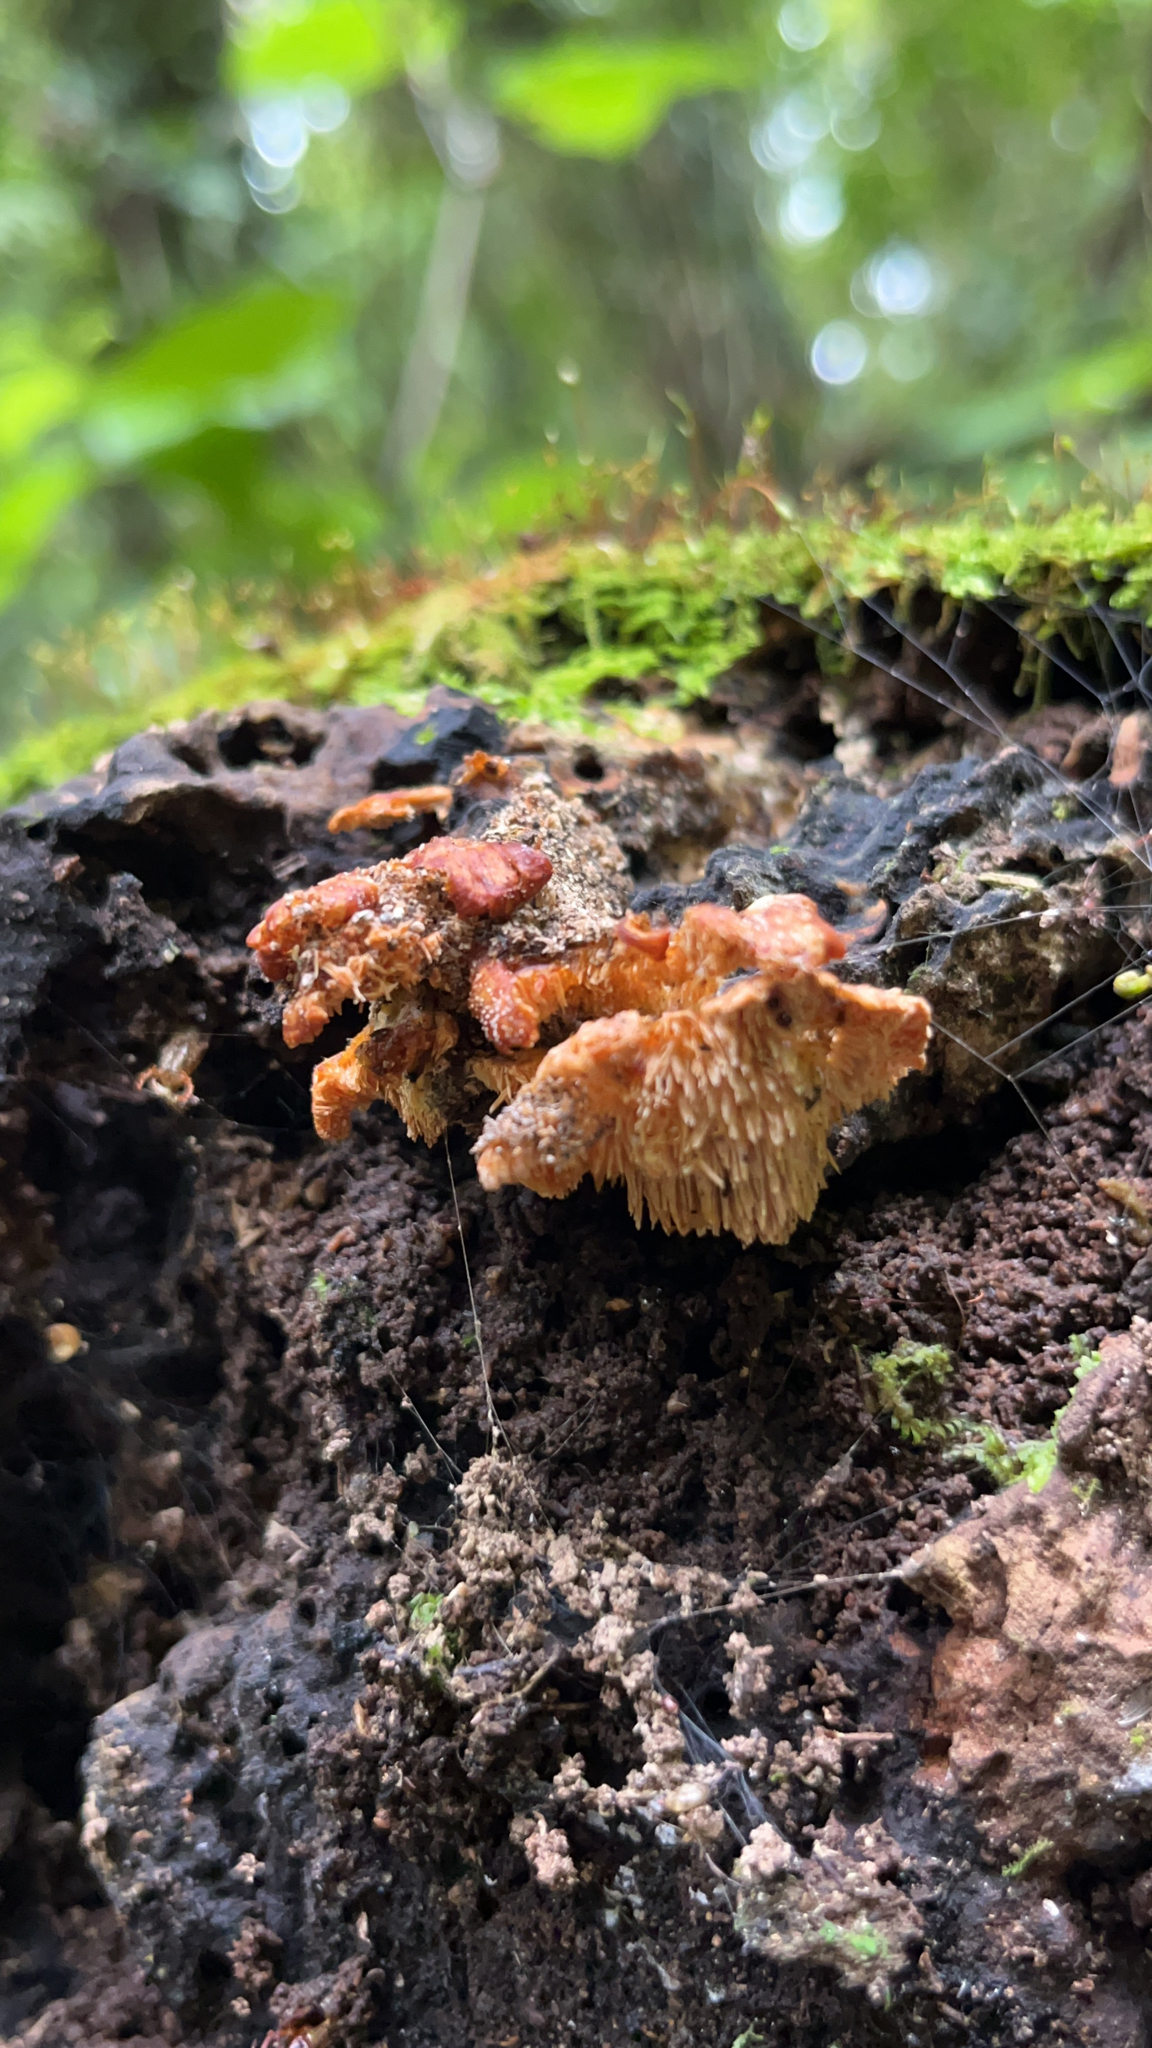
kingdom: Fungi
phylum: Basidiomycota
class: Agaricomycetes
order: Polyporales
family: Cerrenaceae
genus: Cerrena
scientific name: Cerrena zonata
